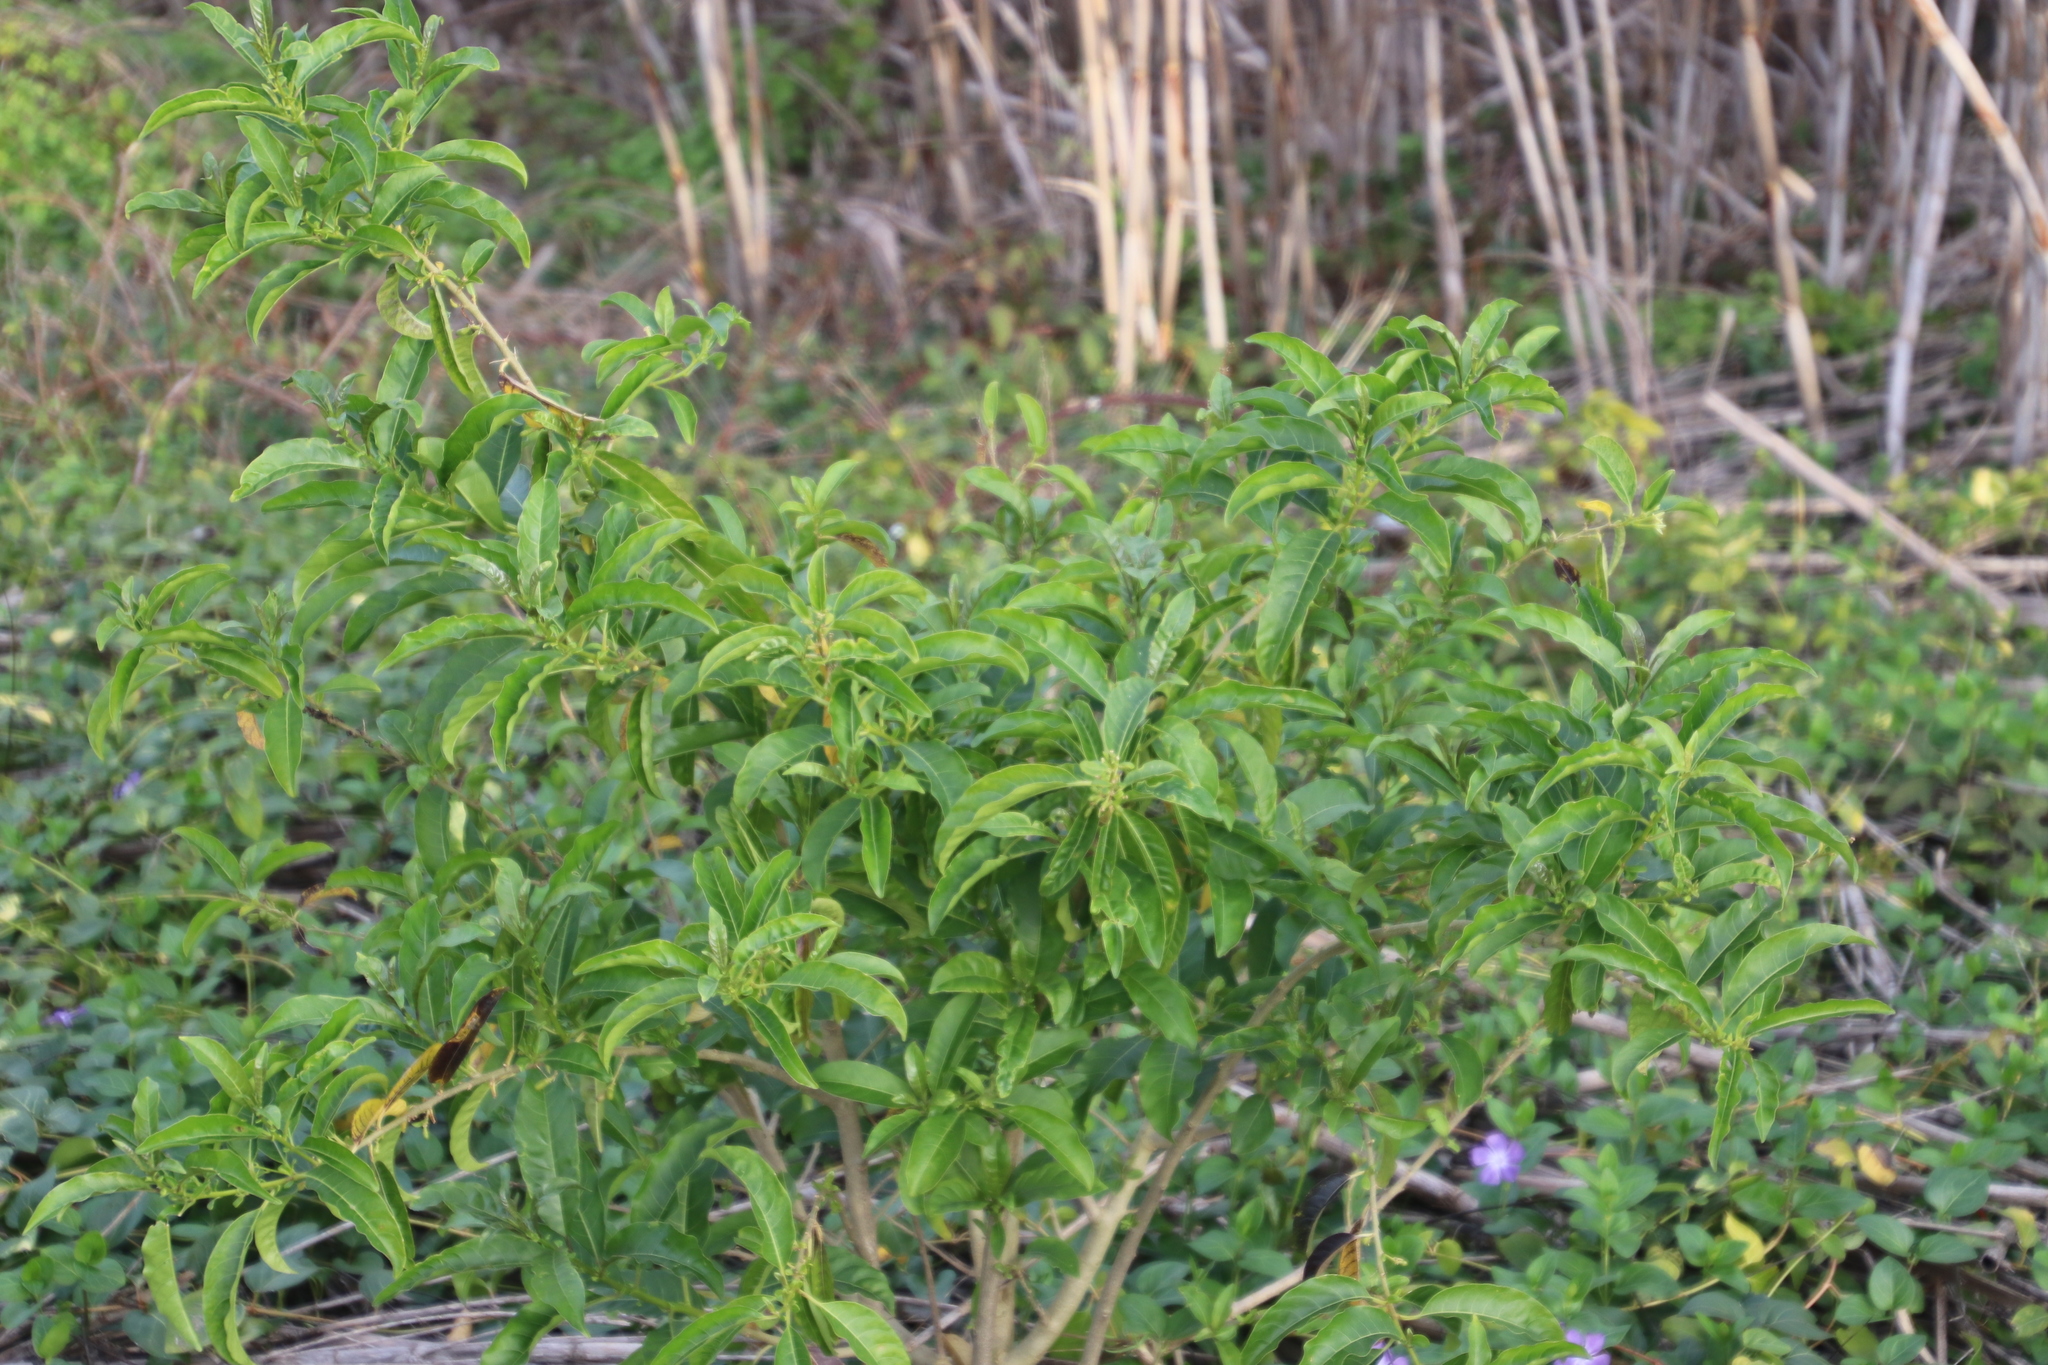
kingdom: Plantae
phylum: Tracheophyta
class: Magnoliopsida
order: Solanales
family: Solanaceae
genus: Cestrum
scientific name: Cestrum laevigatum
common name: Inkberry
